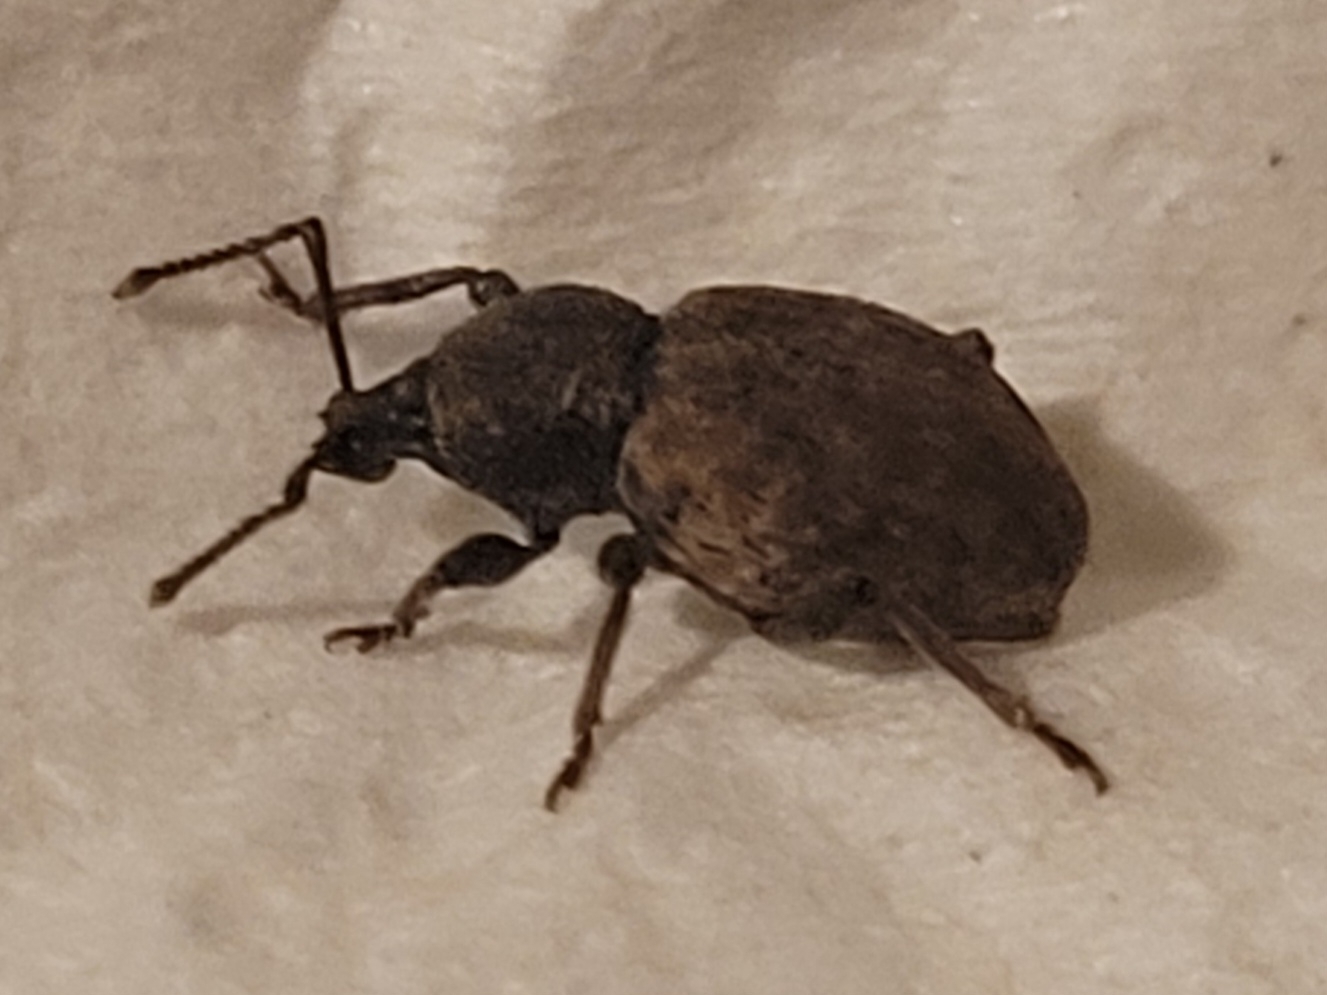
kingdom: Animalia
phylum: Arthropoda
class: Insecta
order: Coleoptera
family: Curculionidae
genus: Otiorhynchus
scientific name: Otiorhynchus raucus
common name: Weevil
